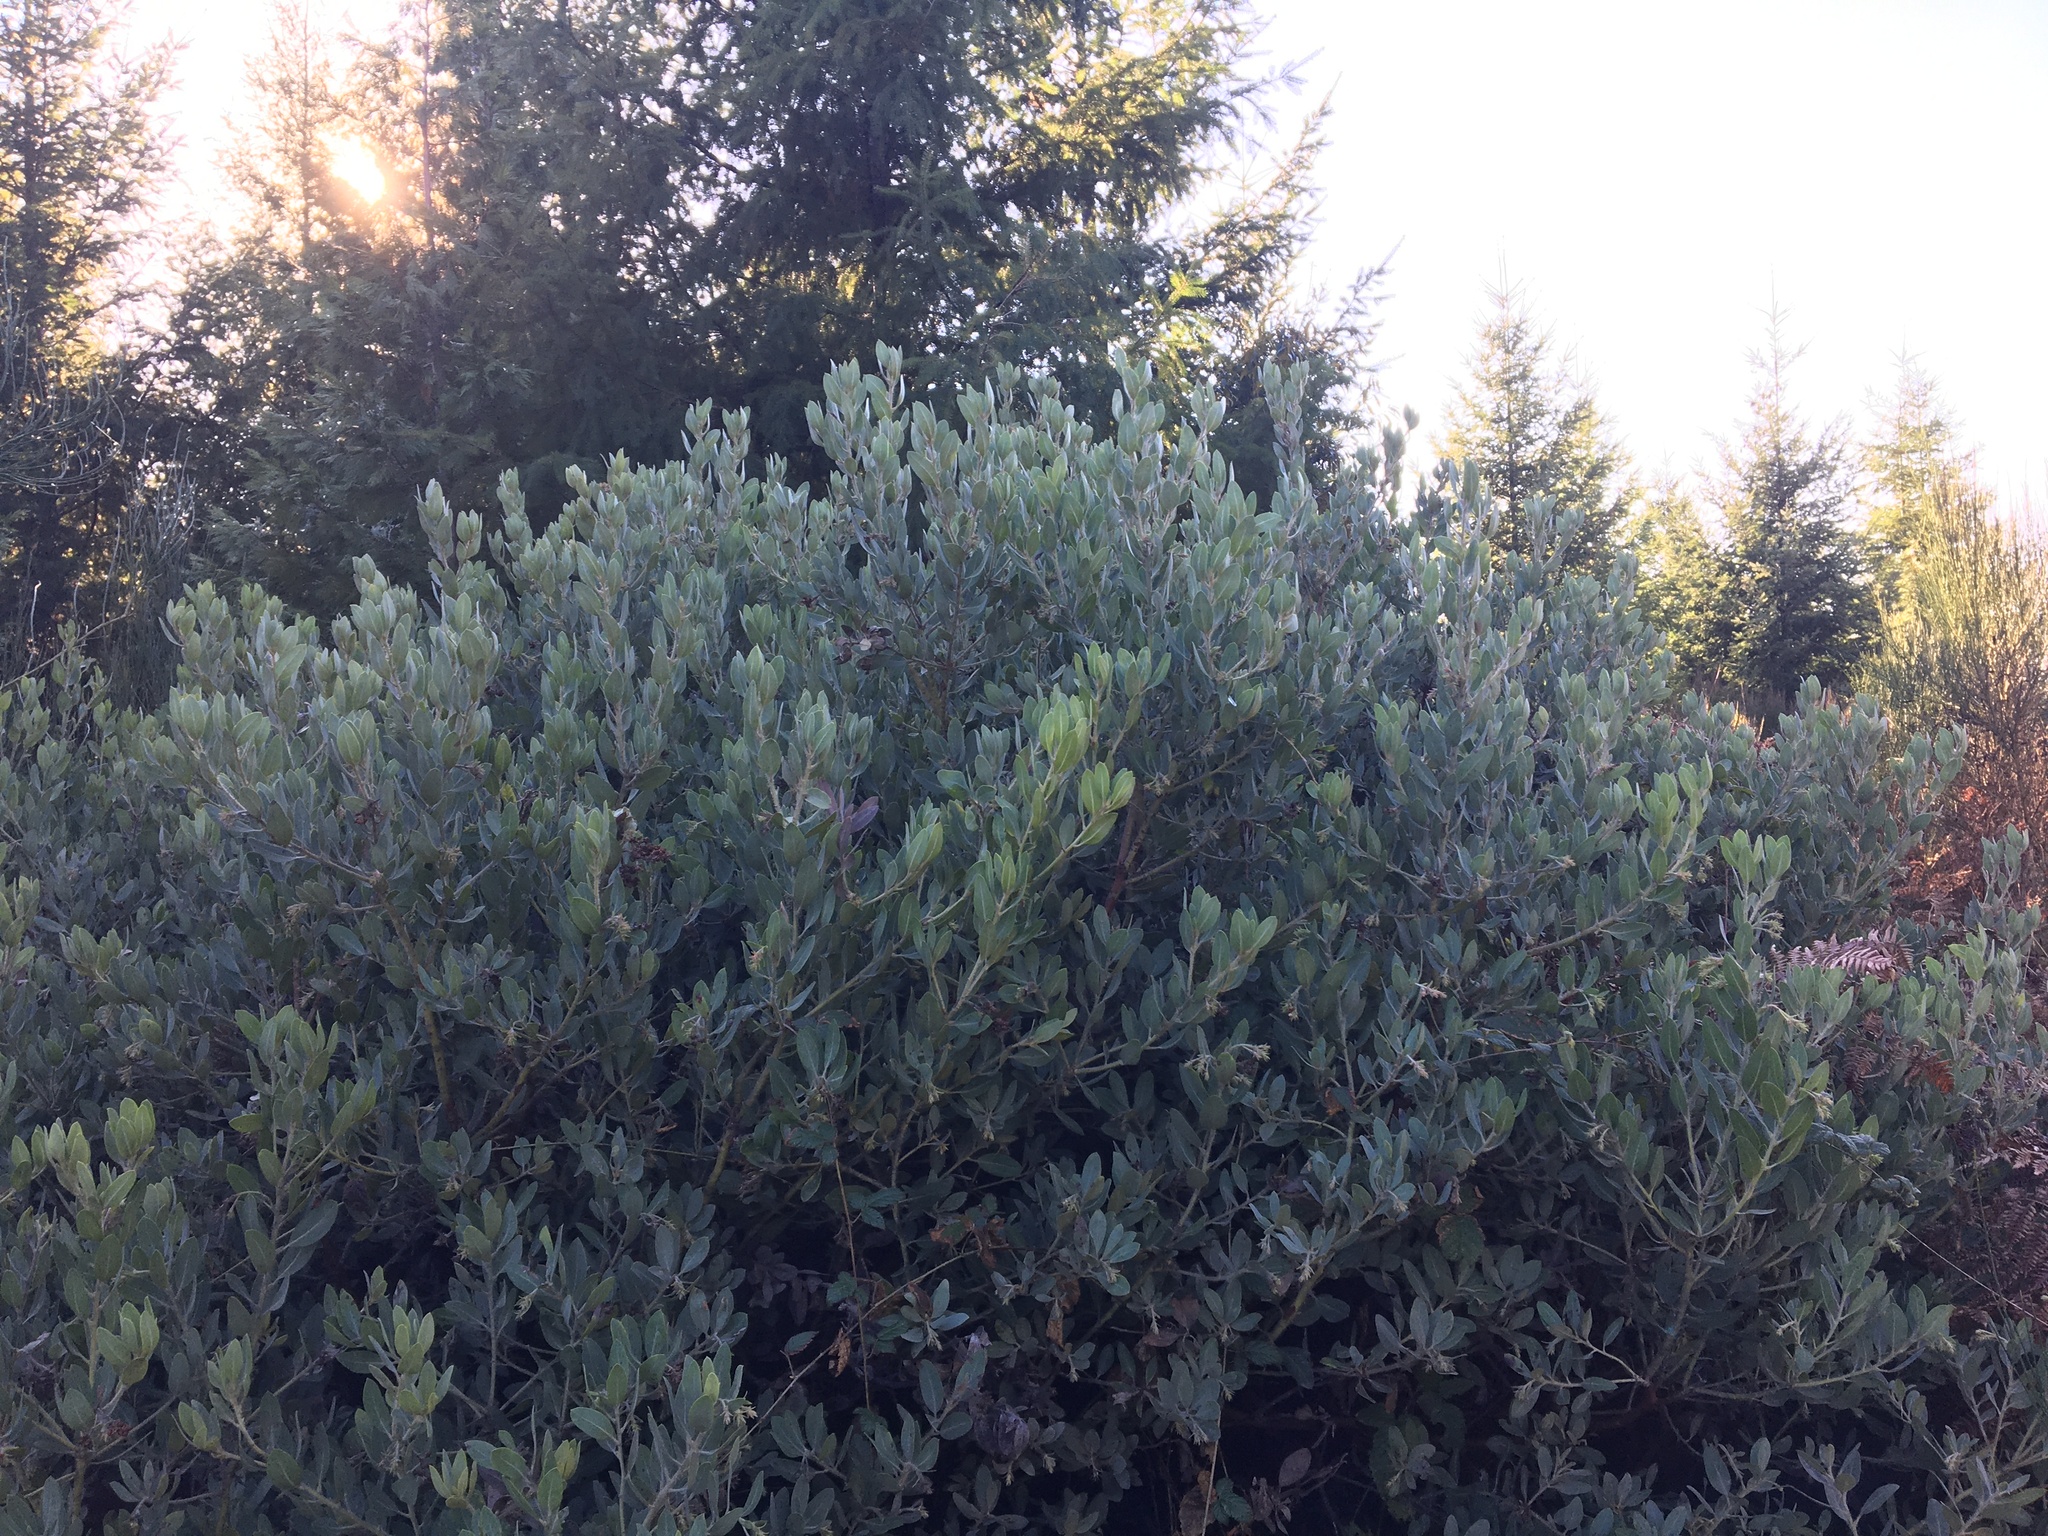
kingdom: Plantae
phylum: Tracheophyta
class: Magnoliopsida
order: Ericales
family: Ericaceae
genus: Arctostaphylos
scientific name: Arctostaphylos columbiana
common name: Bristly bearberry
